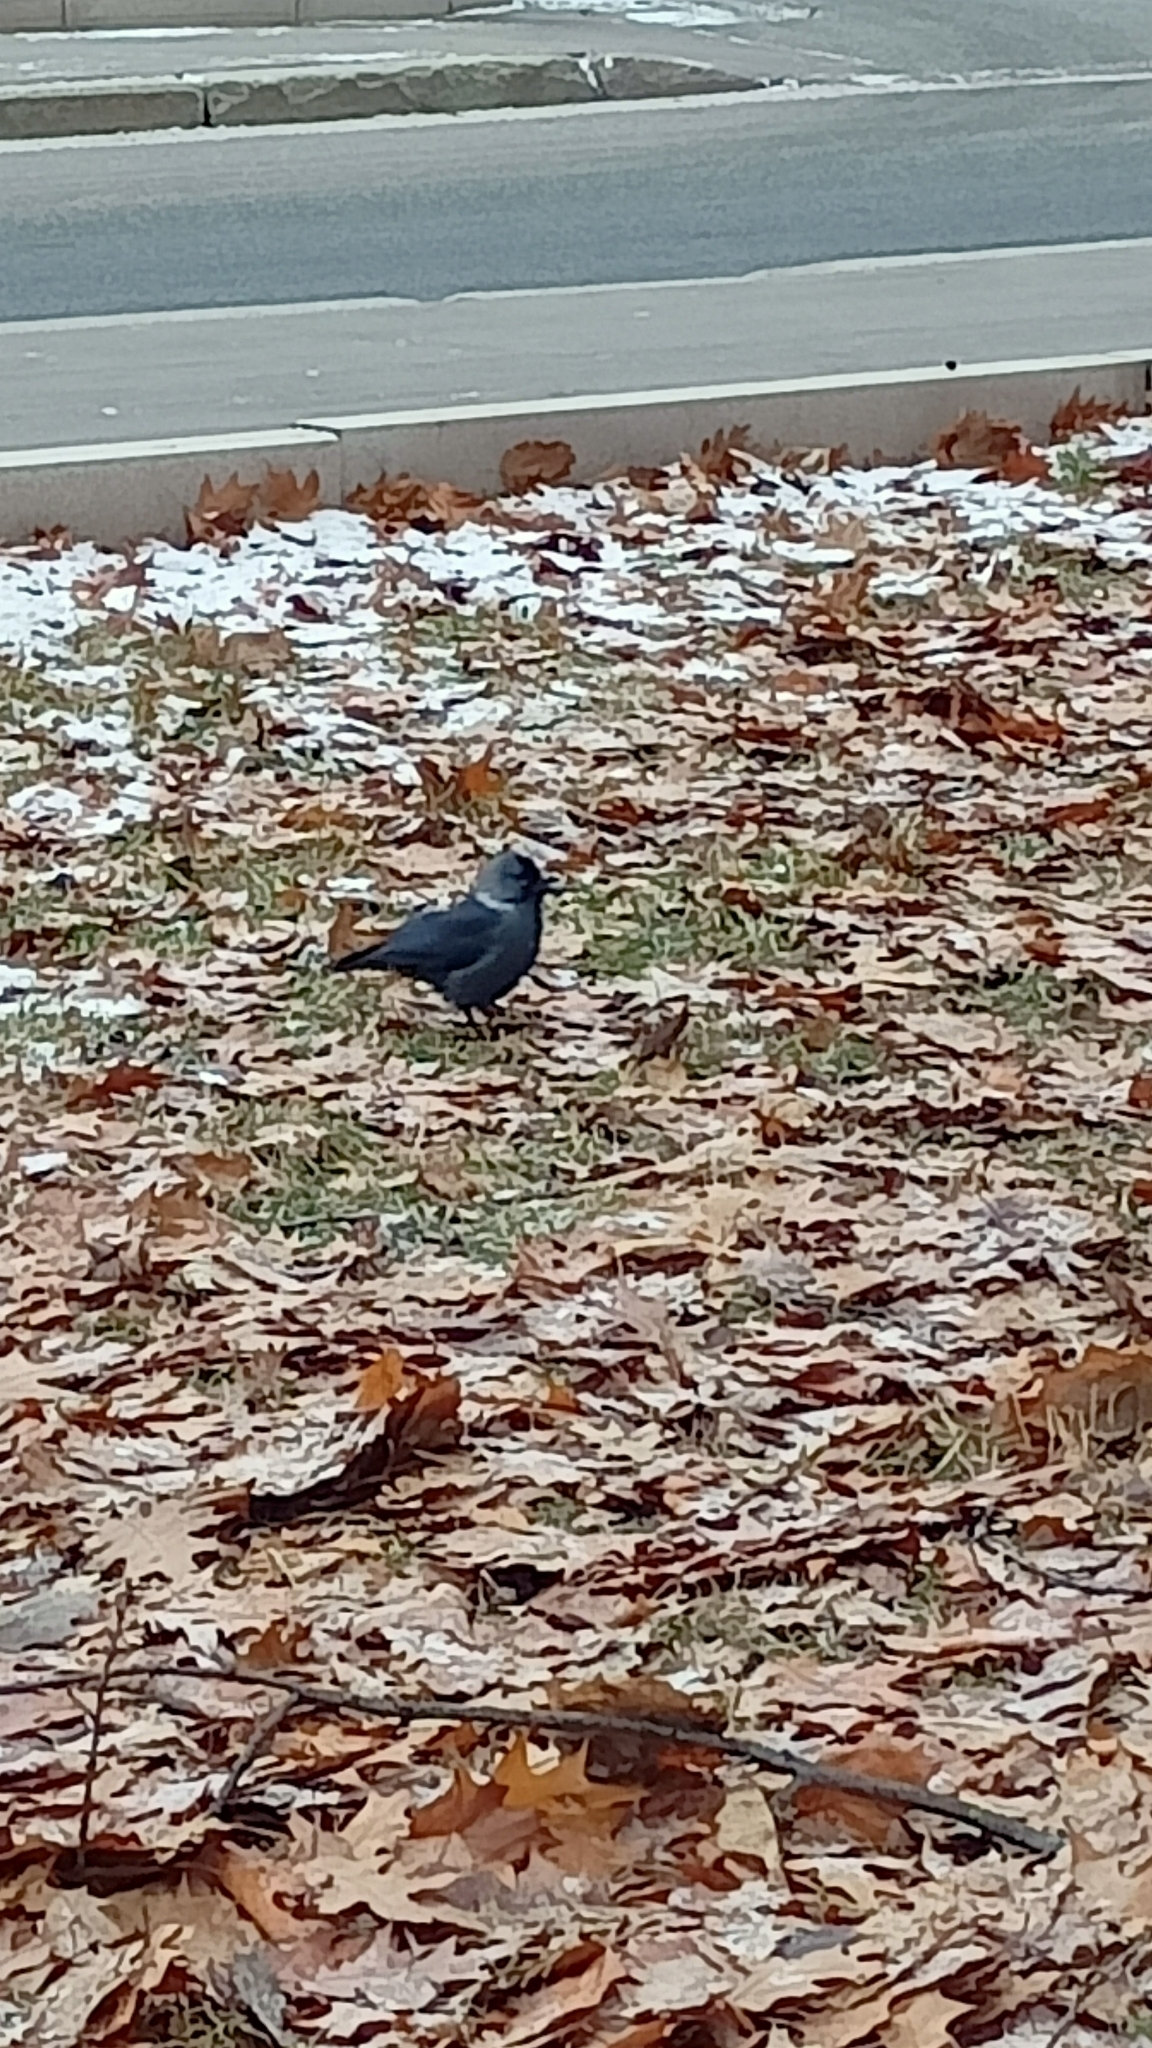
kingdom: Animalia
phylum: Chordata
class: Aves
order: Passeriformes
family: Corvidae
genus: Coloeus
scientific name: Coloeus monedula
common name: Western jackdaw
